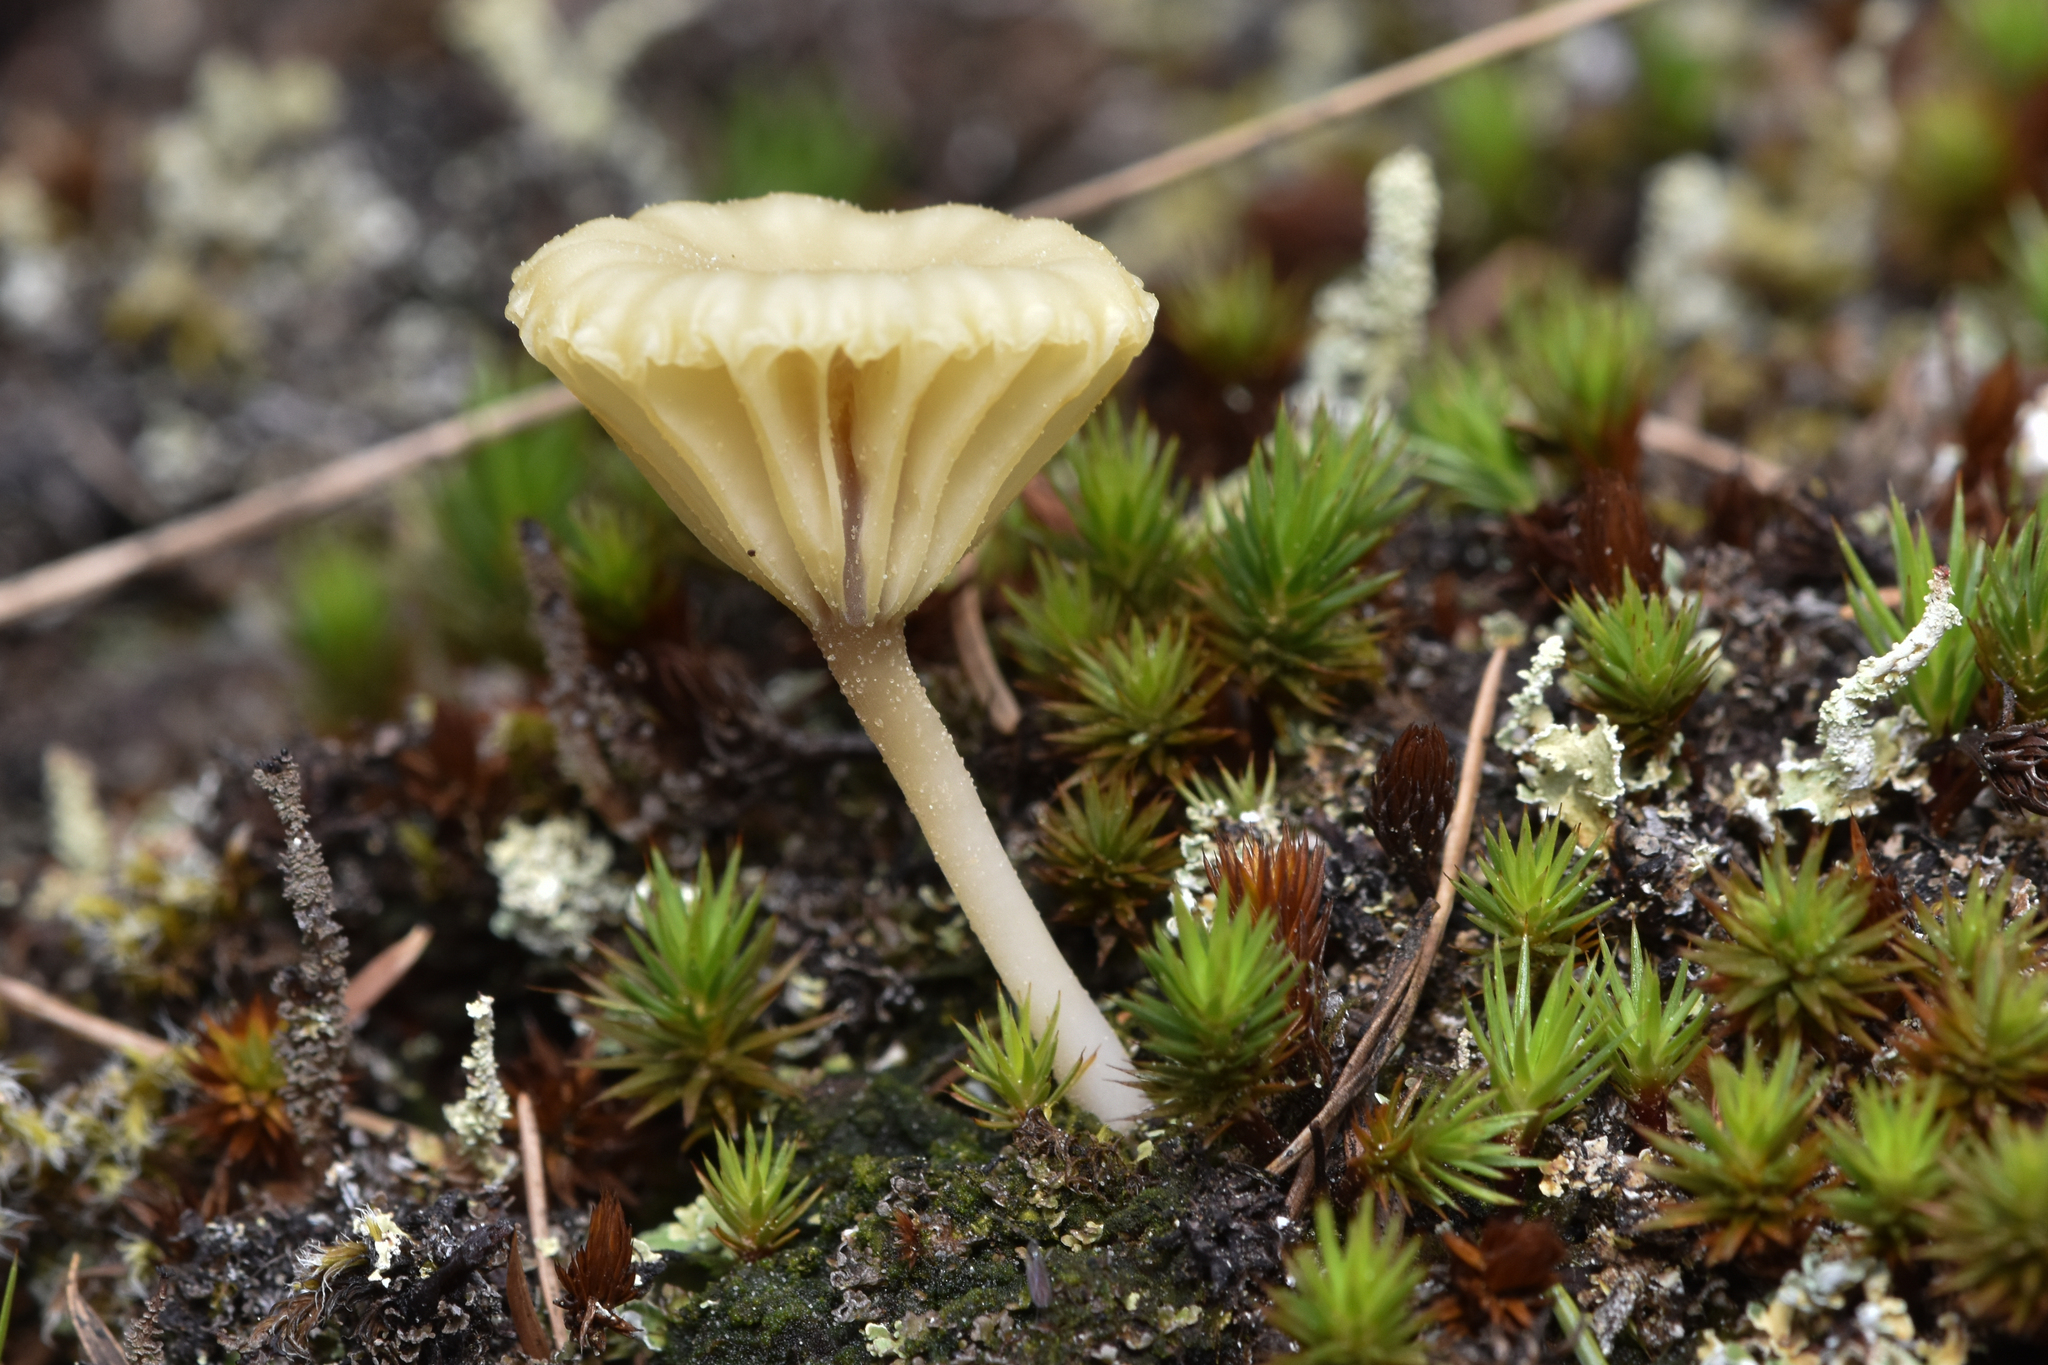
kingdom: Fungi
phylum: Basidiomycota
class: Agaricomycetes
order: Agaricales
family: Hygrophoraceae
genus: Lichenomphalia
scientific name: Lichenomphalia
